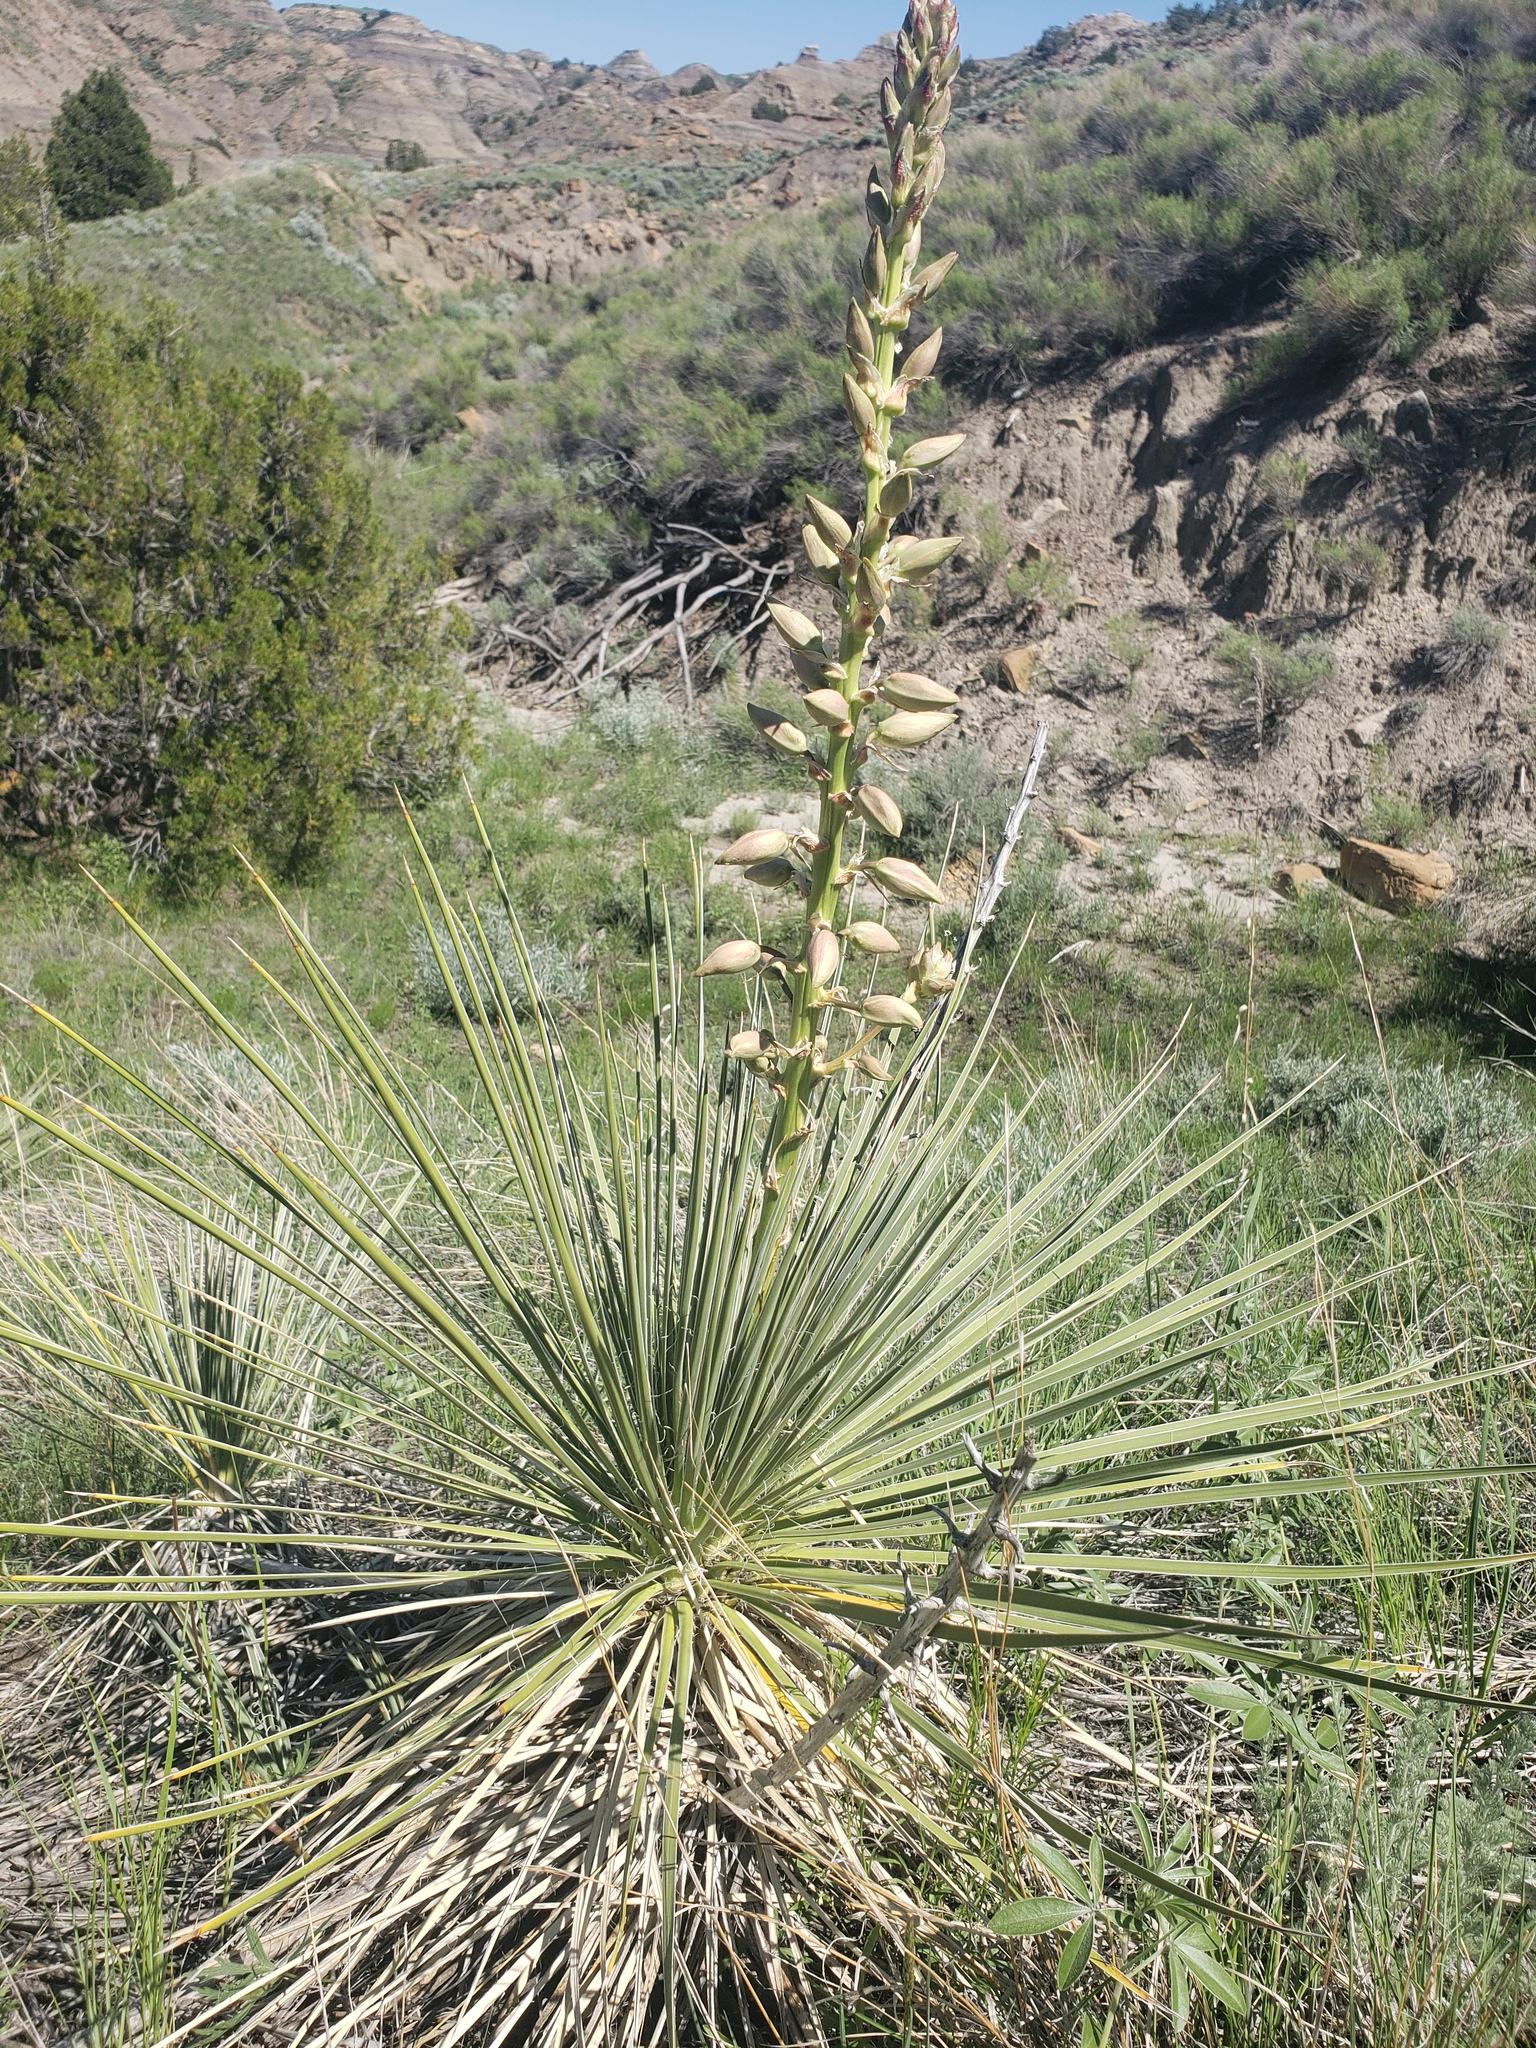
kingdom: Plantae
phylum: Tracheophyta
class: Liliopsida
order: Asparagales
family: Asparagaceae
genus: Yucca
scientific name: Yucca glauca
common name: Great plains yucca
